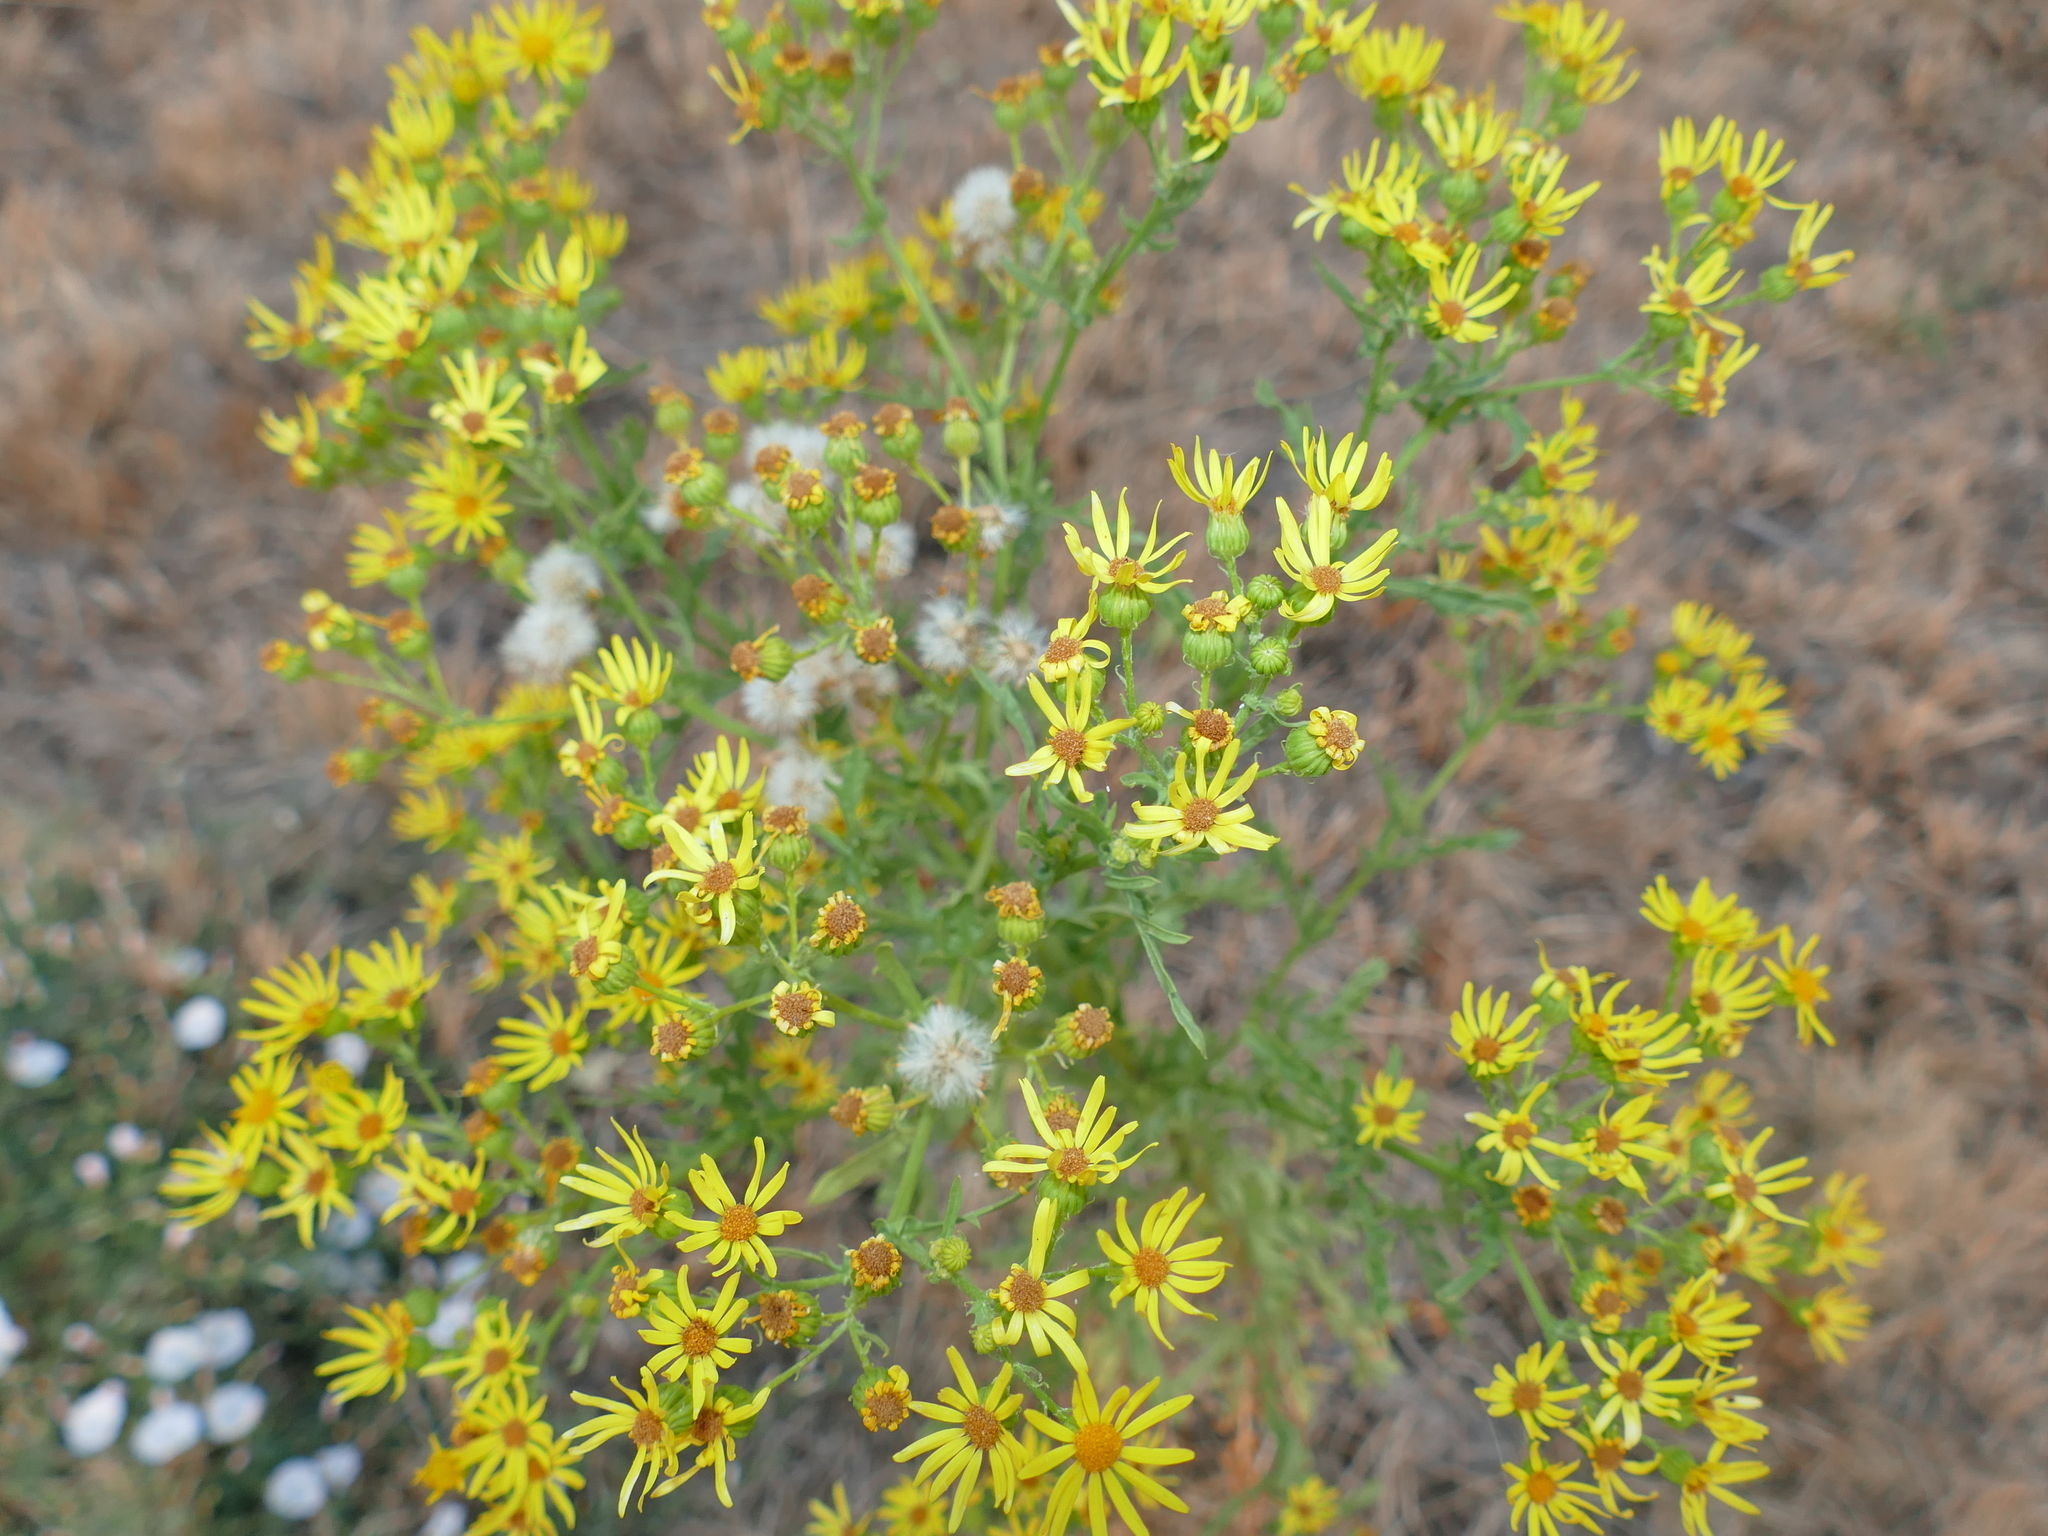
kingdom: Plantae
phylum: Tracheophyta
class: Magnoliopsida
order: Asterales
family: Asteraceae
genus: Jacobaea
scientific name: Jacobaea vulgaris
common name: Stinking willie
